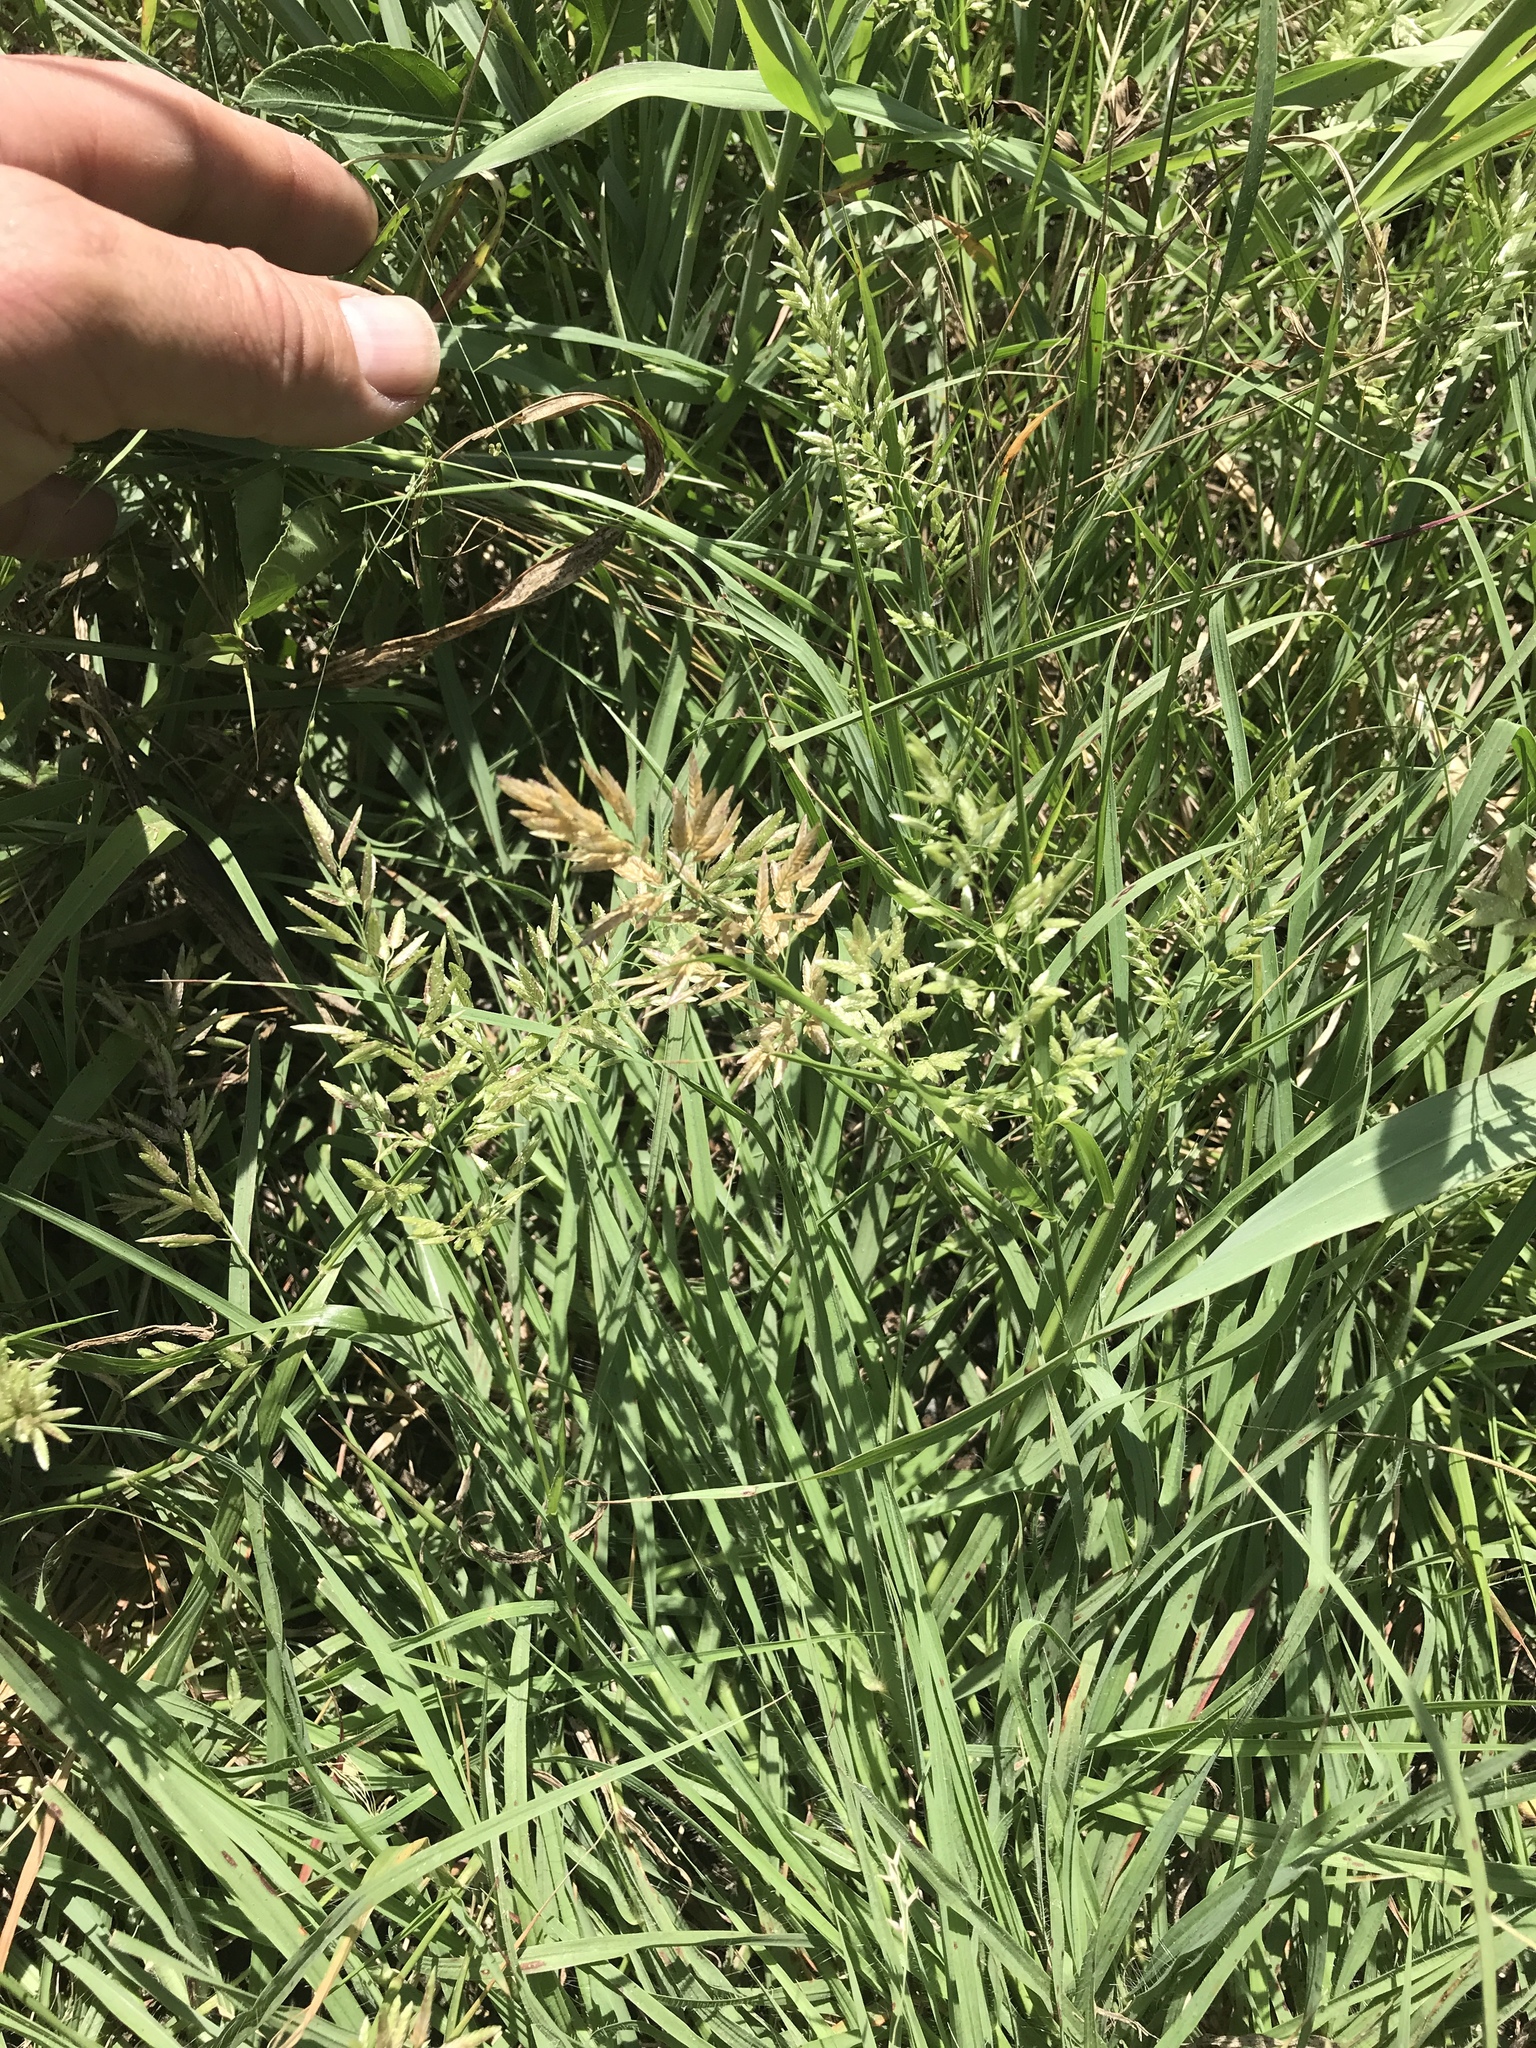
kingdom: Plantae
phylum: Tracheophyta
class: Liliopsida
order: Poales
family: Poaceae
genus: Eragrostis
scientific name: Eragrostis secundiflora
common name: Red love grass
